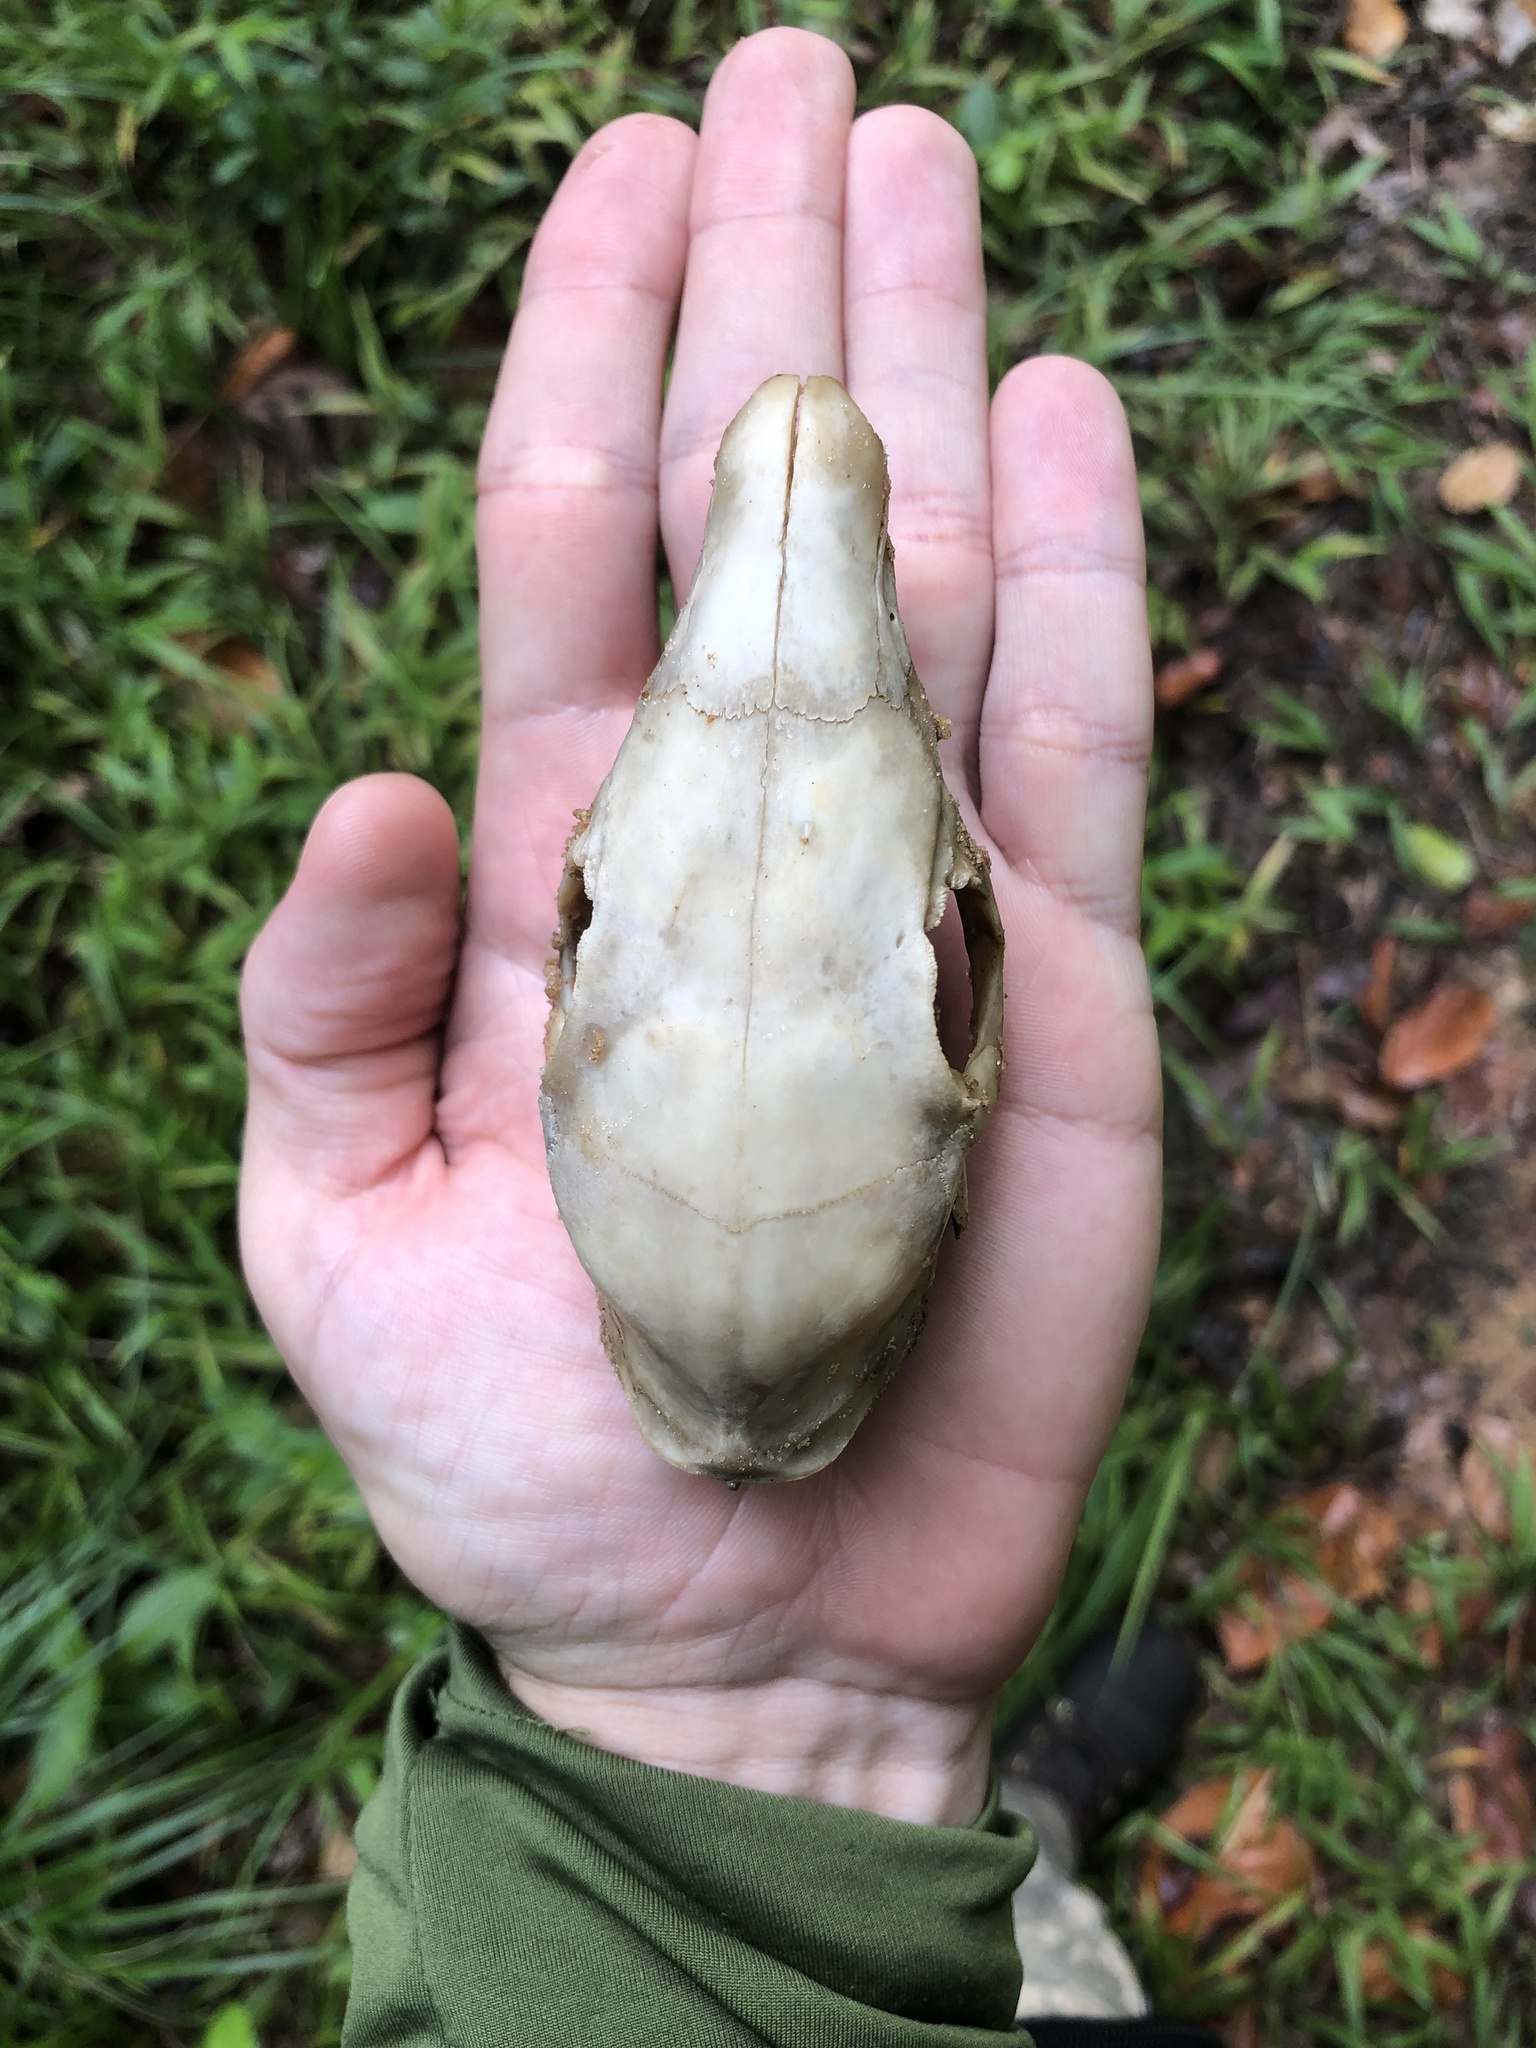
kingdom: Animalia
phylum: Chordata
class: Mammalia
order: Rodentia
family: Dasyproctidae
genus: Dasyprocta
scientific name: Dasyprocta iacki
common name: Iack’s red-rumped agouti
